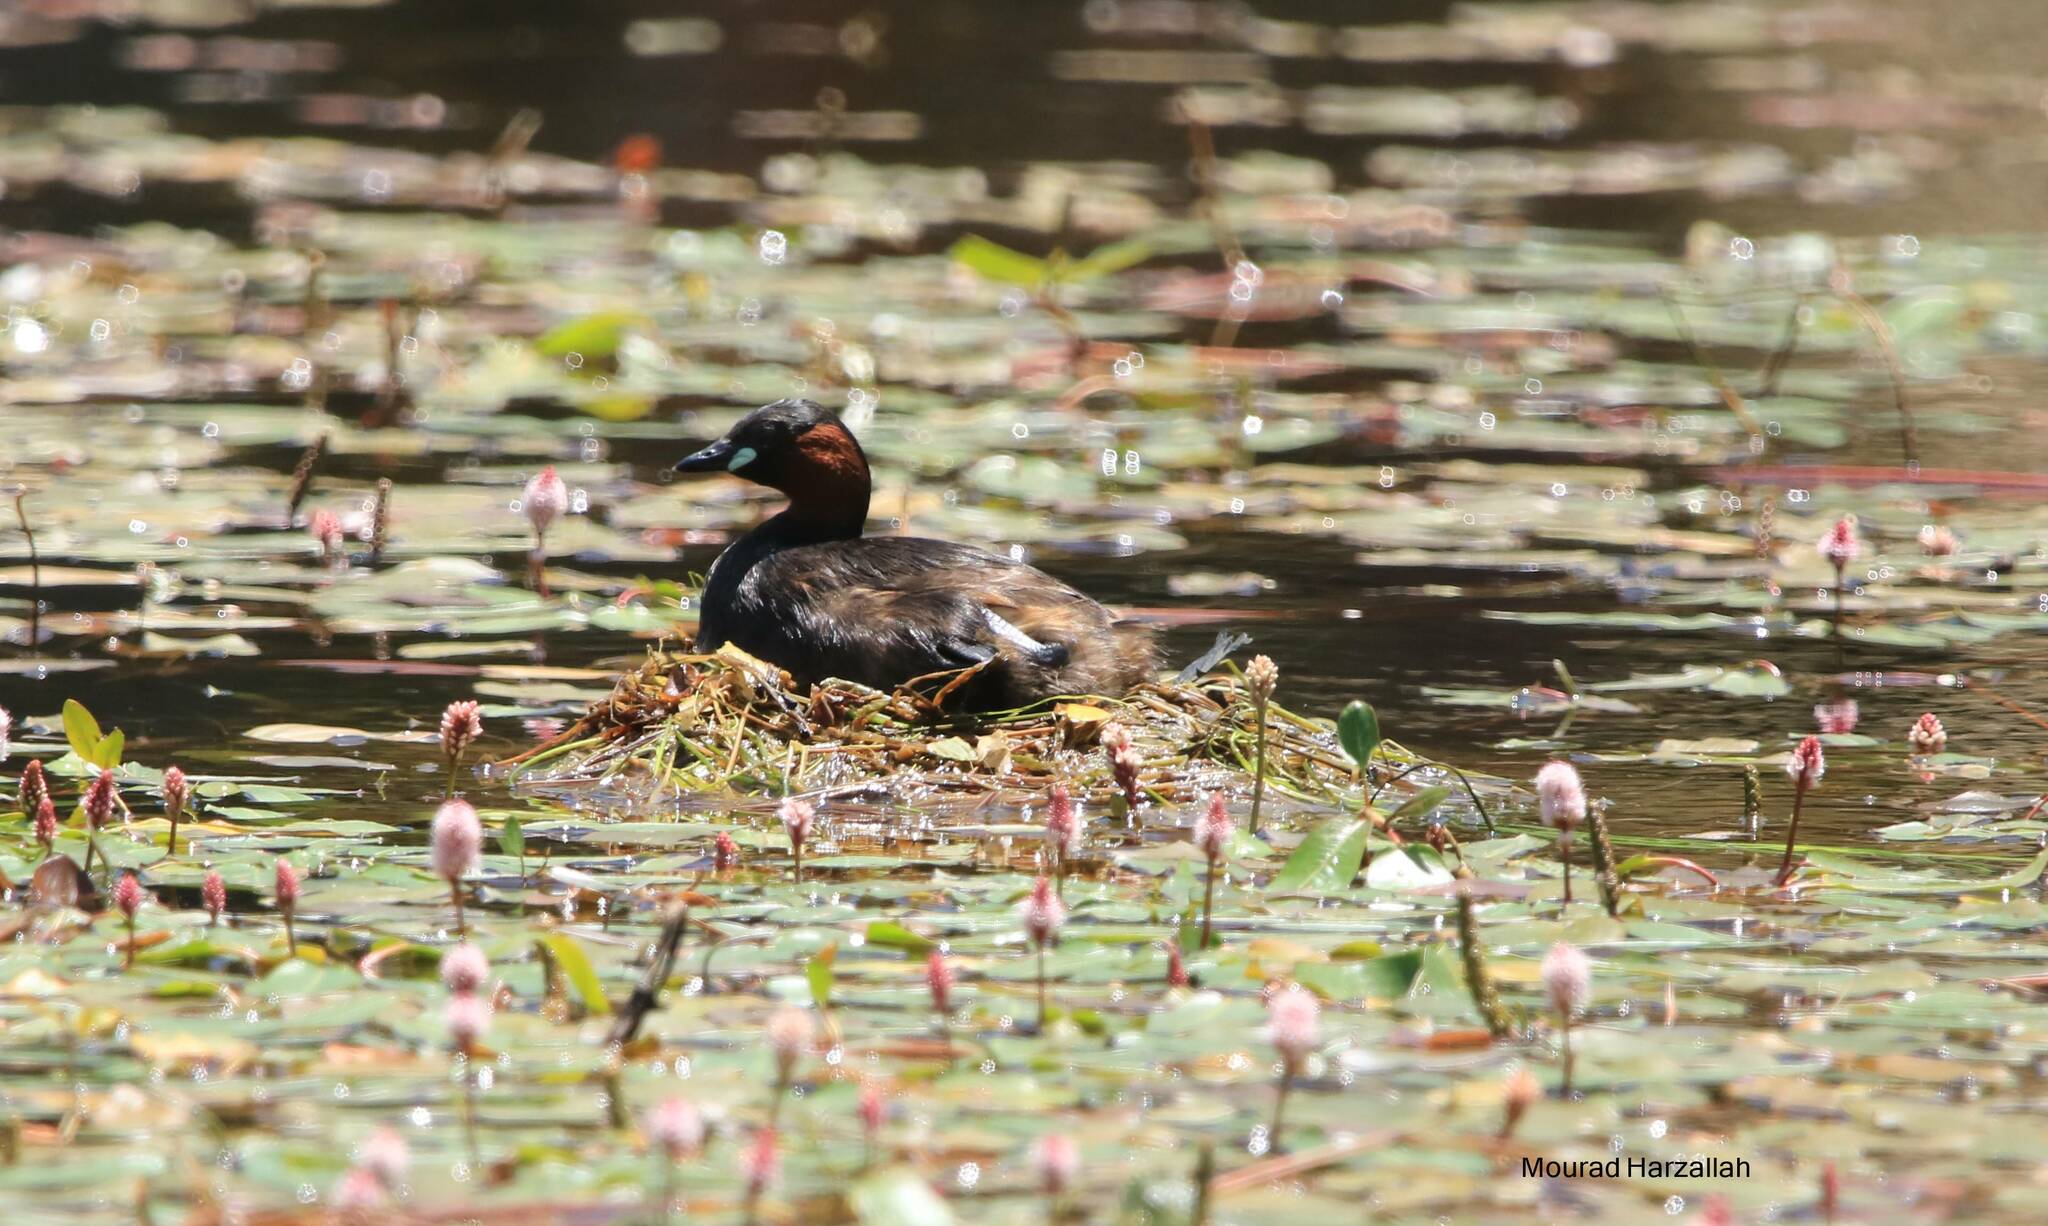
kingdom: Animalia
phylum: Chordata
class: Aves
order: Podicipediformes
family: Podicipedidae
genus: Tachybaptus
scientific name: Tachybaptus ruficollis
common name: Little grebe
